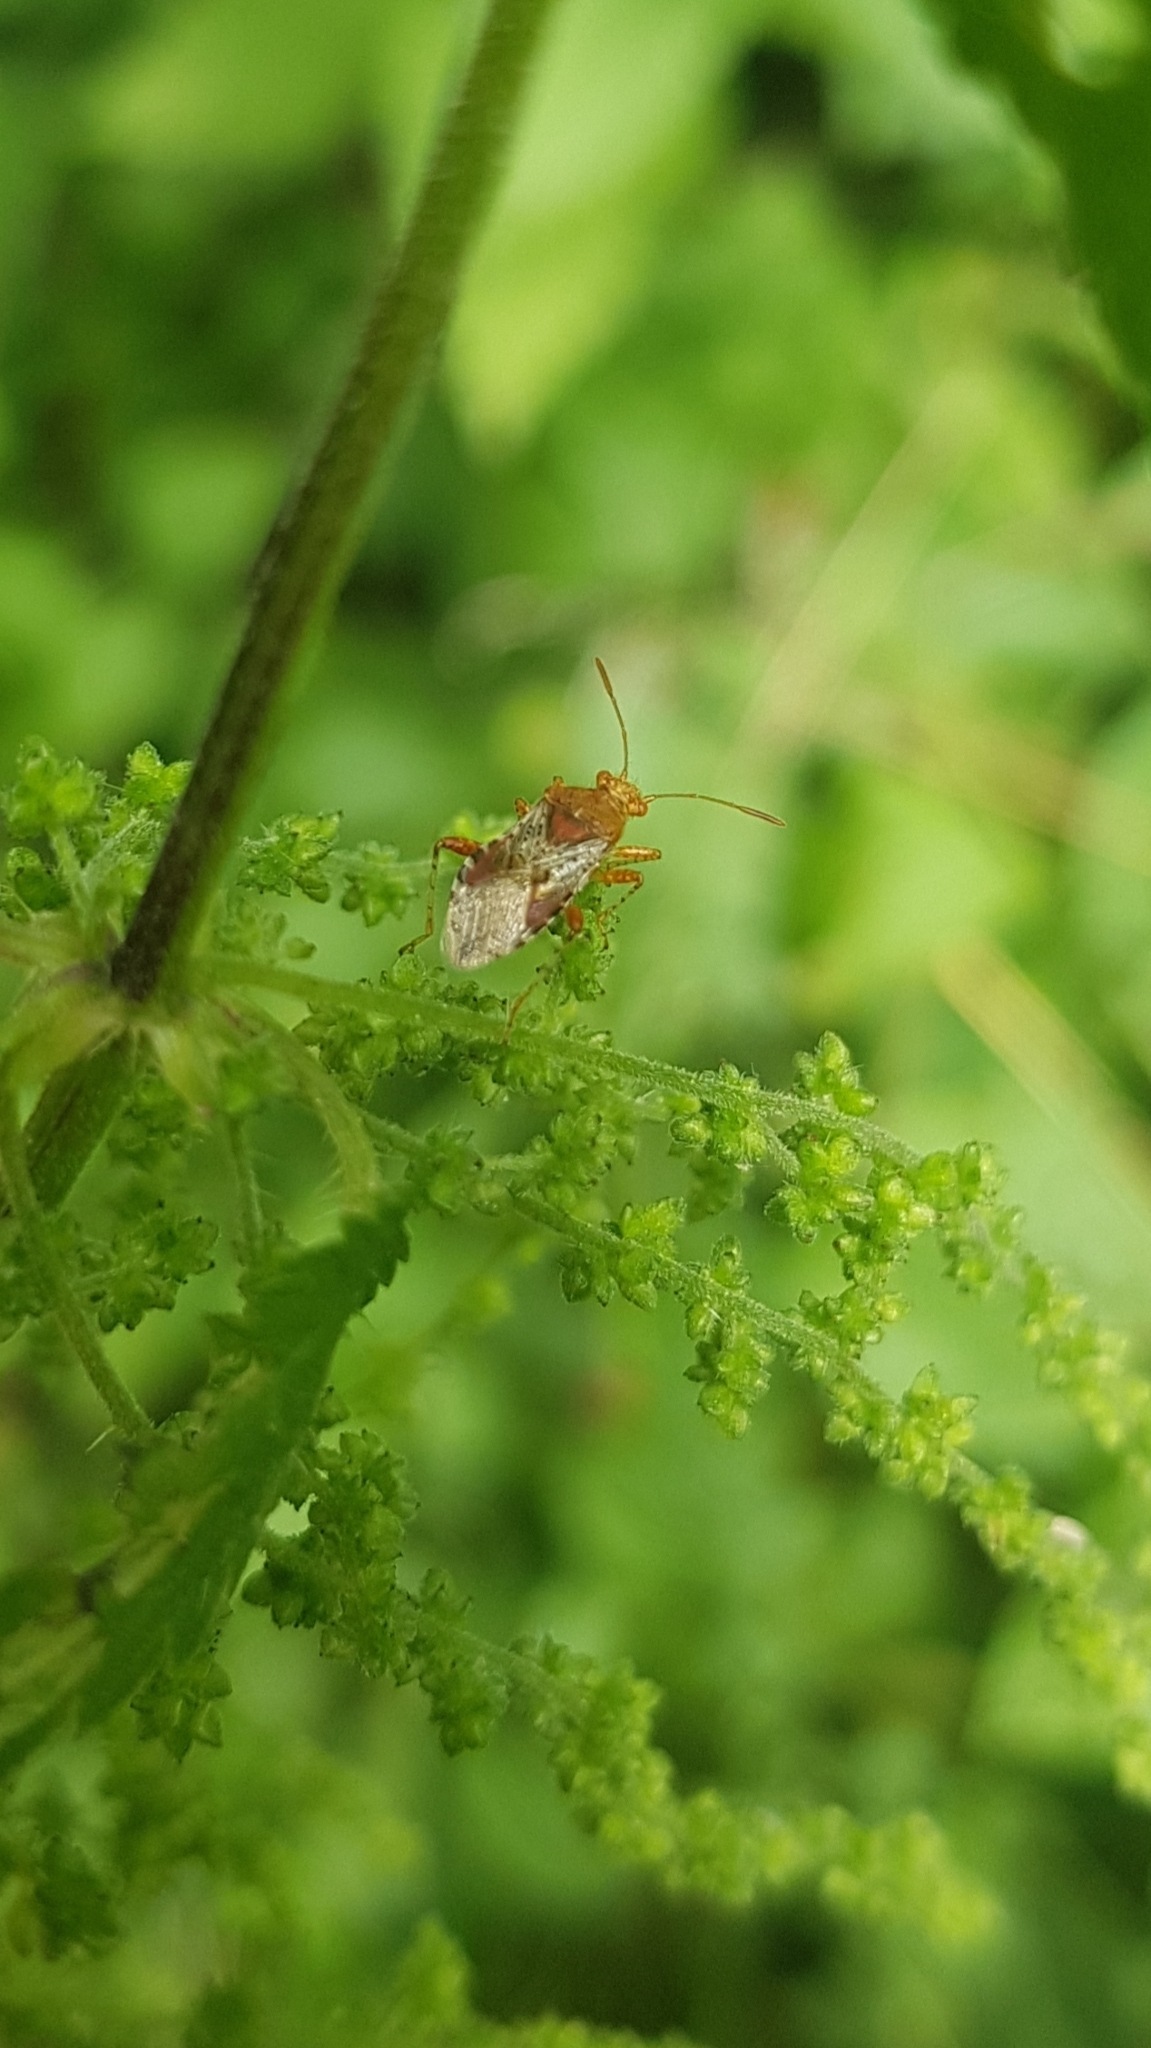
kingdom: Animalia
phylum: Arthropoda
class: Insecta
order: Hemiptera
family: Rhopalidae
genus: Rhopalus
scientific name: Rhopalus subrufus
